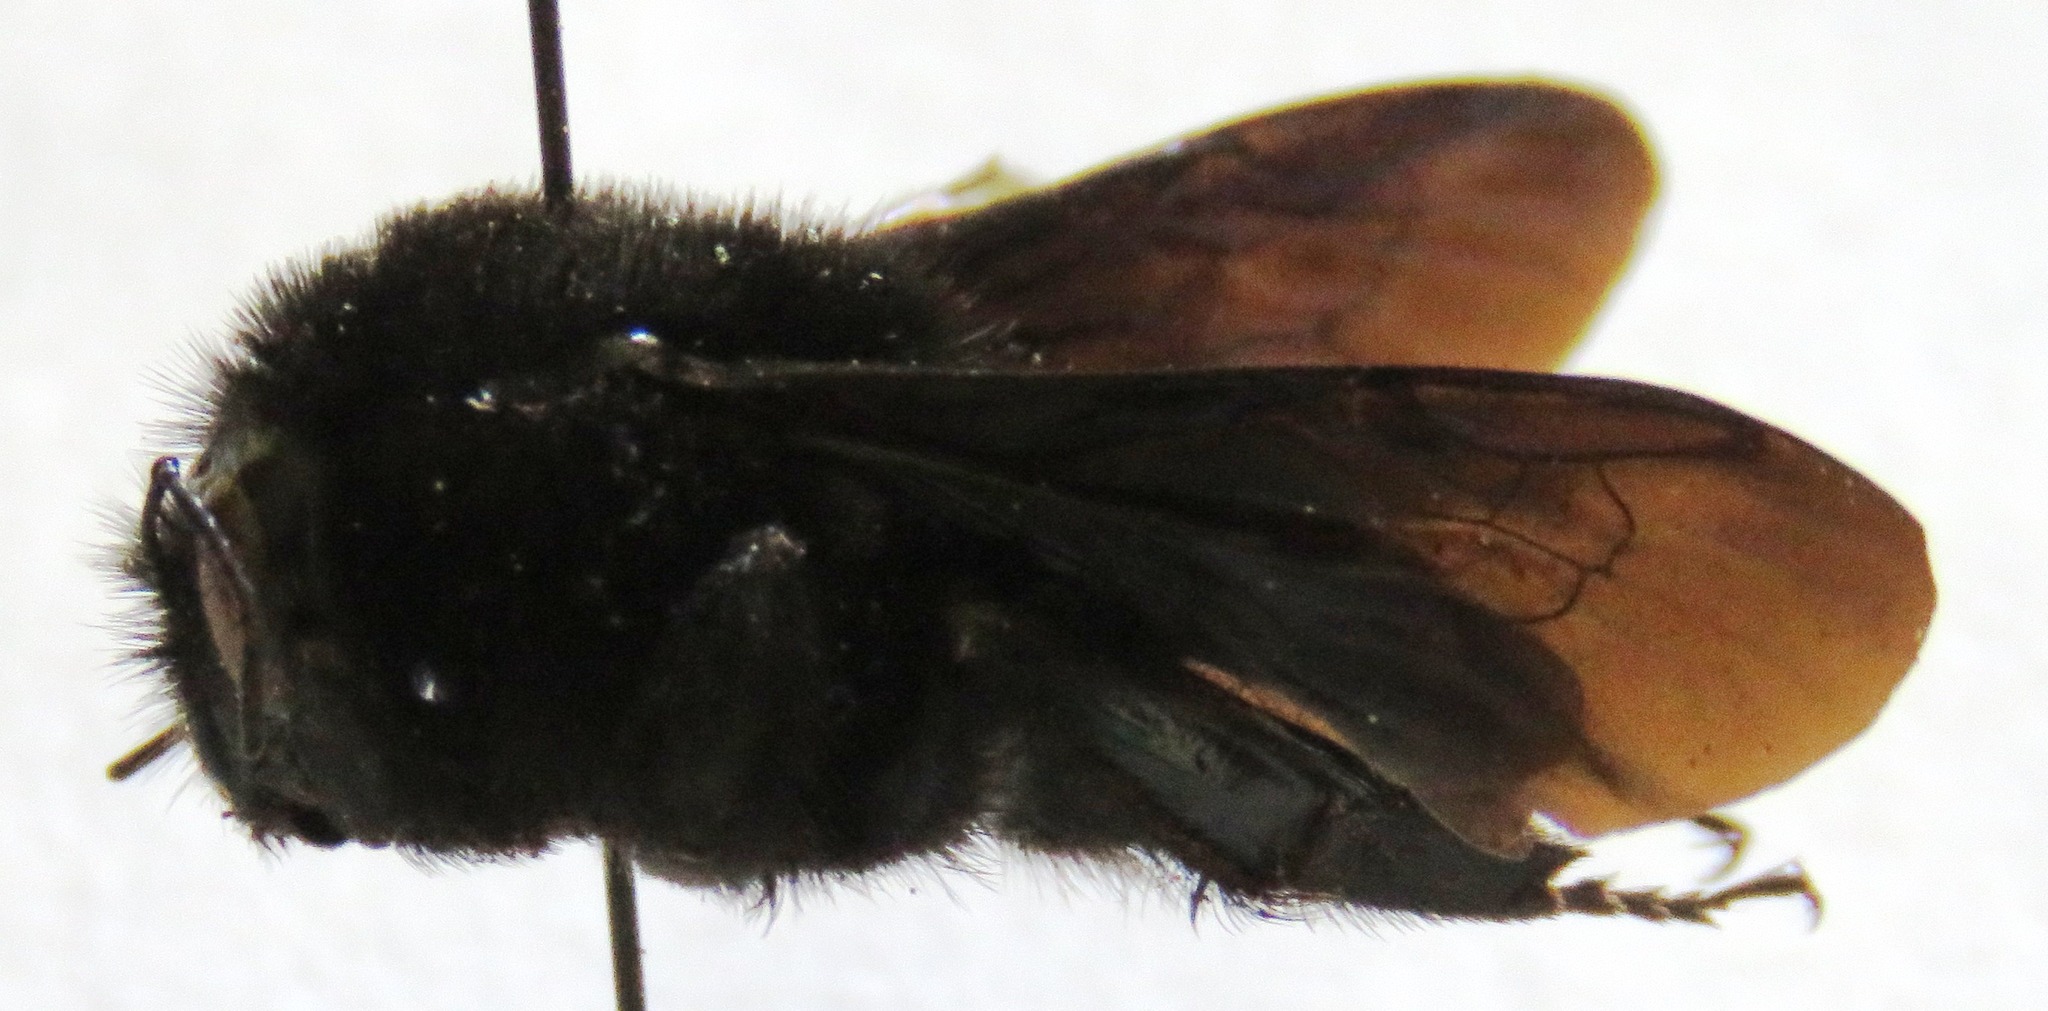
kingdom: Animalia
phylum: Arthropoda
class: Insecta
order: Hymenoptera
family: Apidae
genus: Bombus
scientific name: Bombus pullatus
